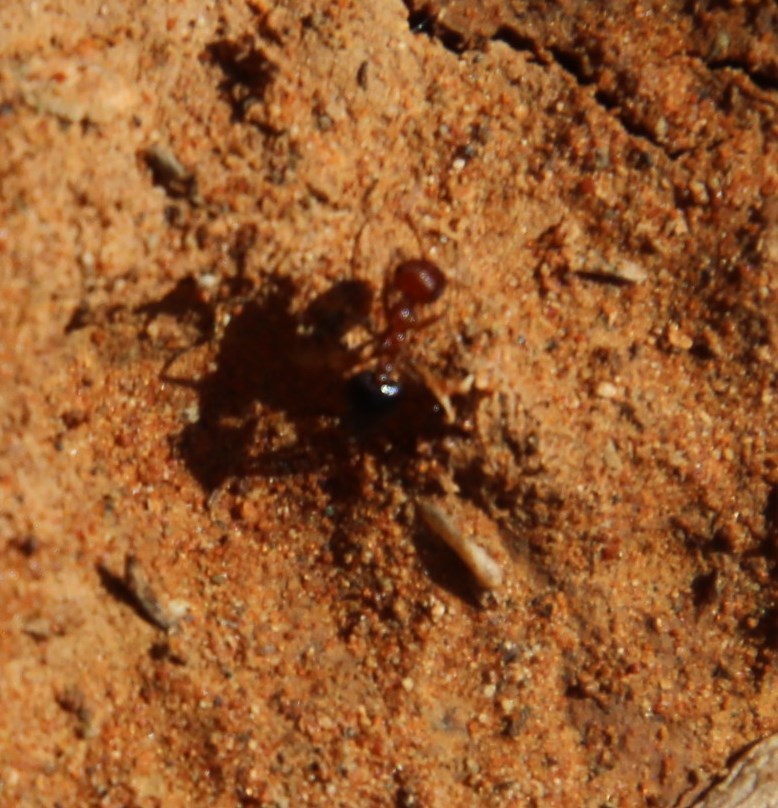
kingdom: Animalia
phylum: Arthropoda
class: Insecta
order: Hymenoptera
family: Formicidae
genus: Crematogaster
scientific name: Crematogaster melanogaster
